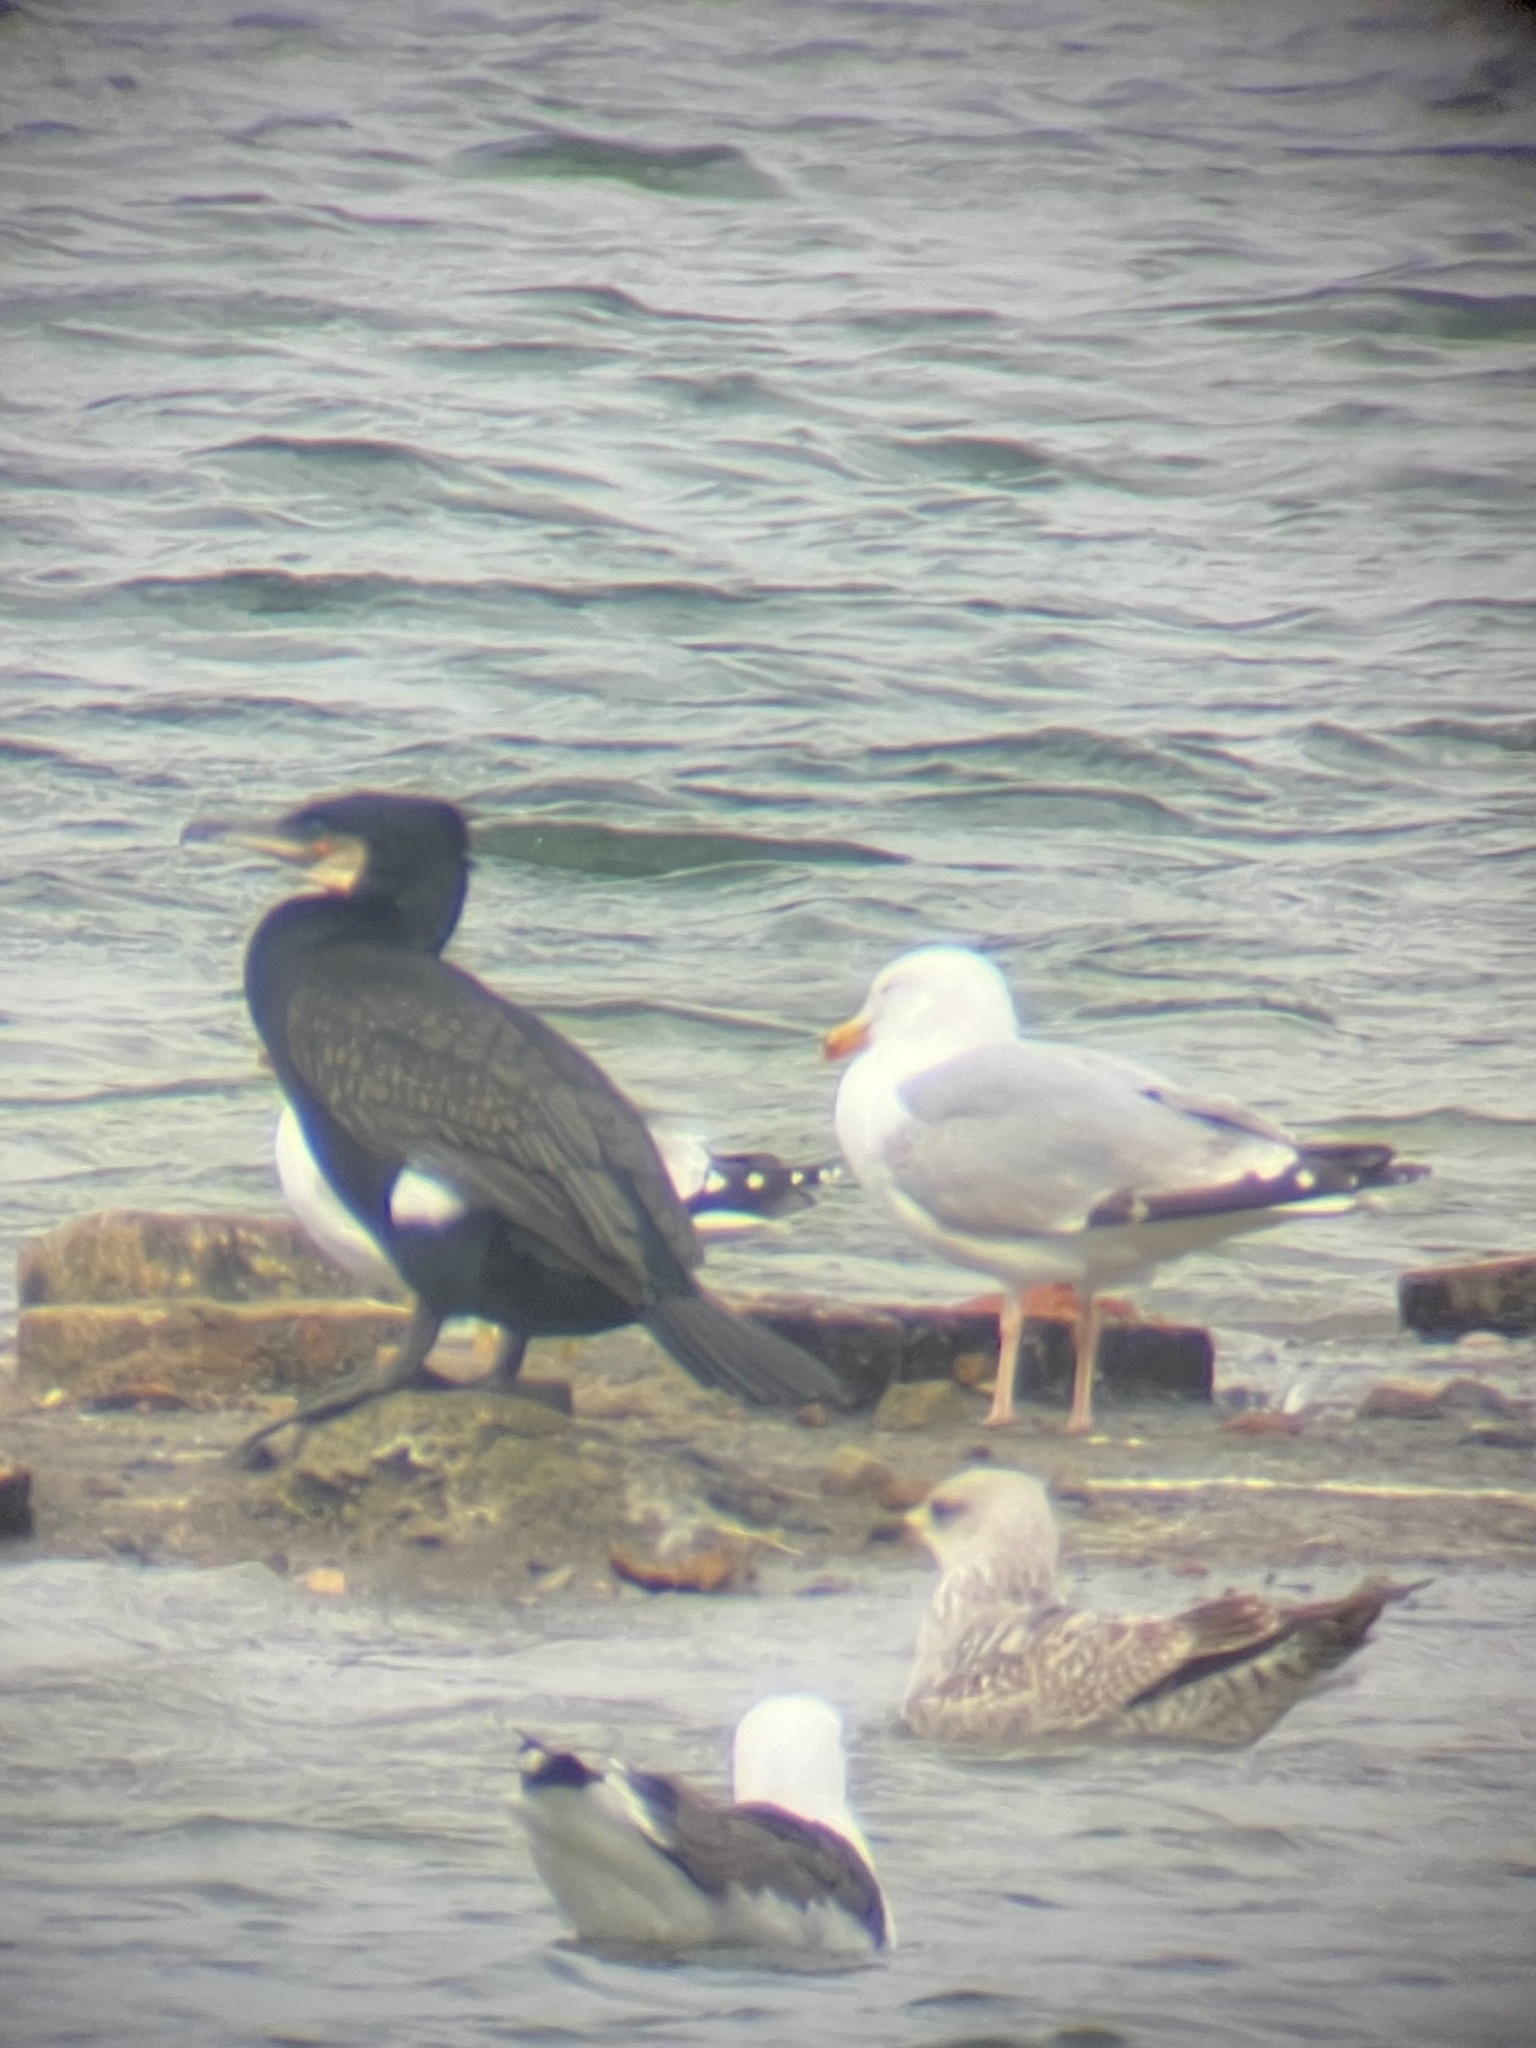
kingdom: Animalia
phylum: Chordata
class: Aves
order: Charadriiformes
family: Laridae
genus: Larus
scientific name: Larus argentatus
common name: Herring gull
